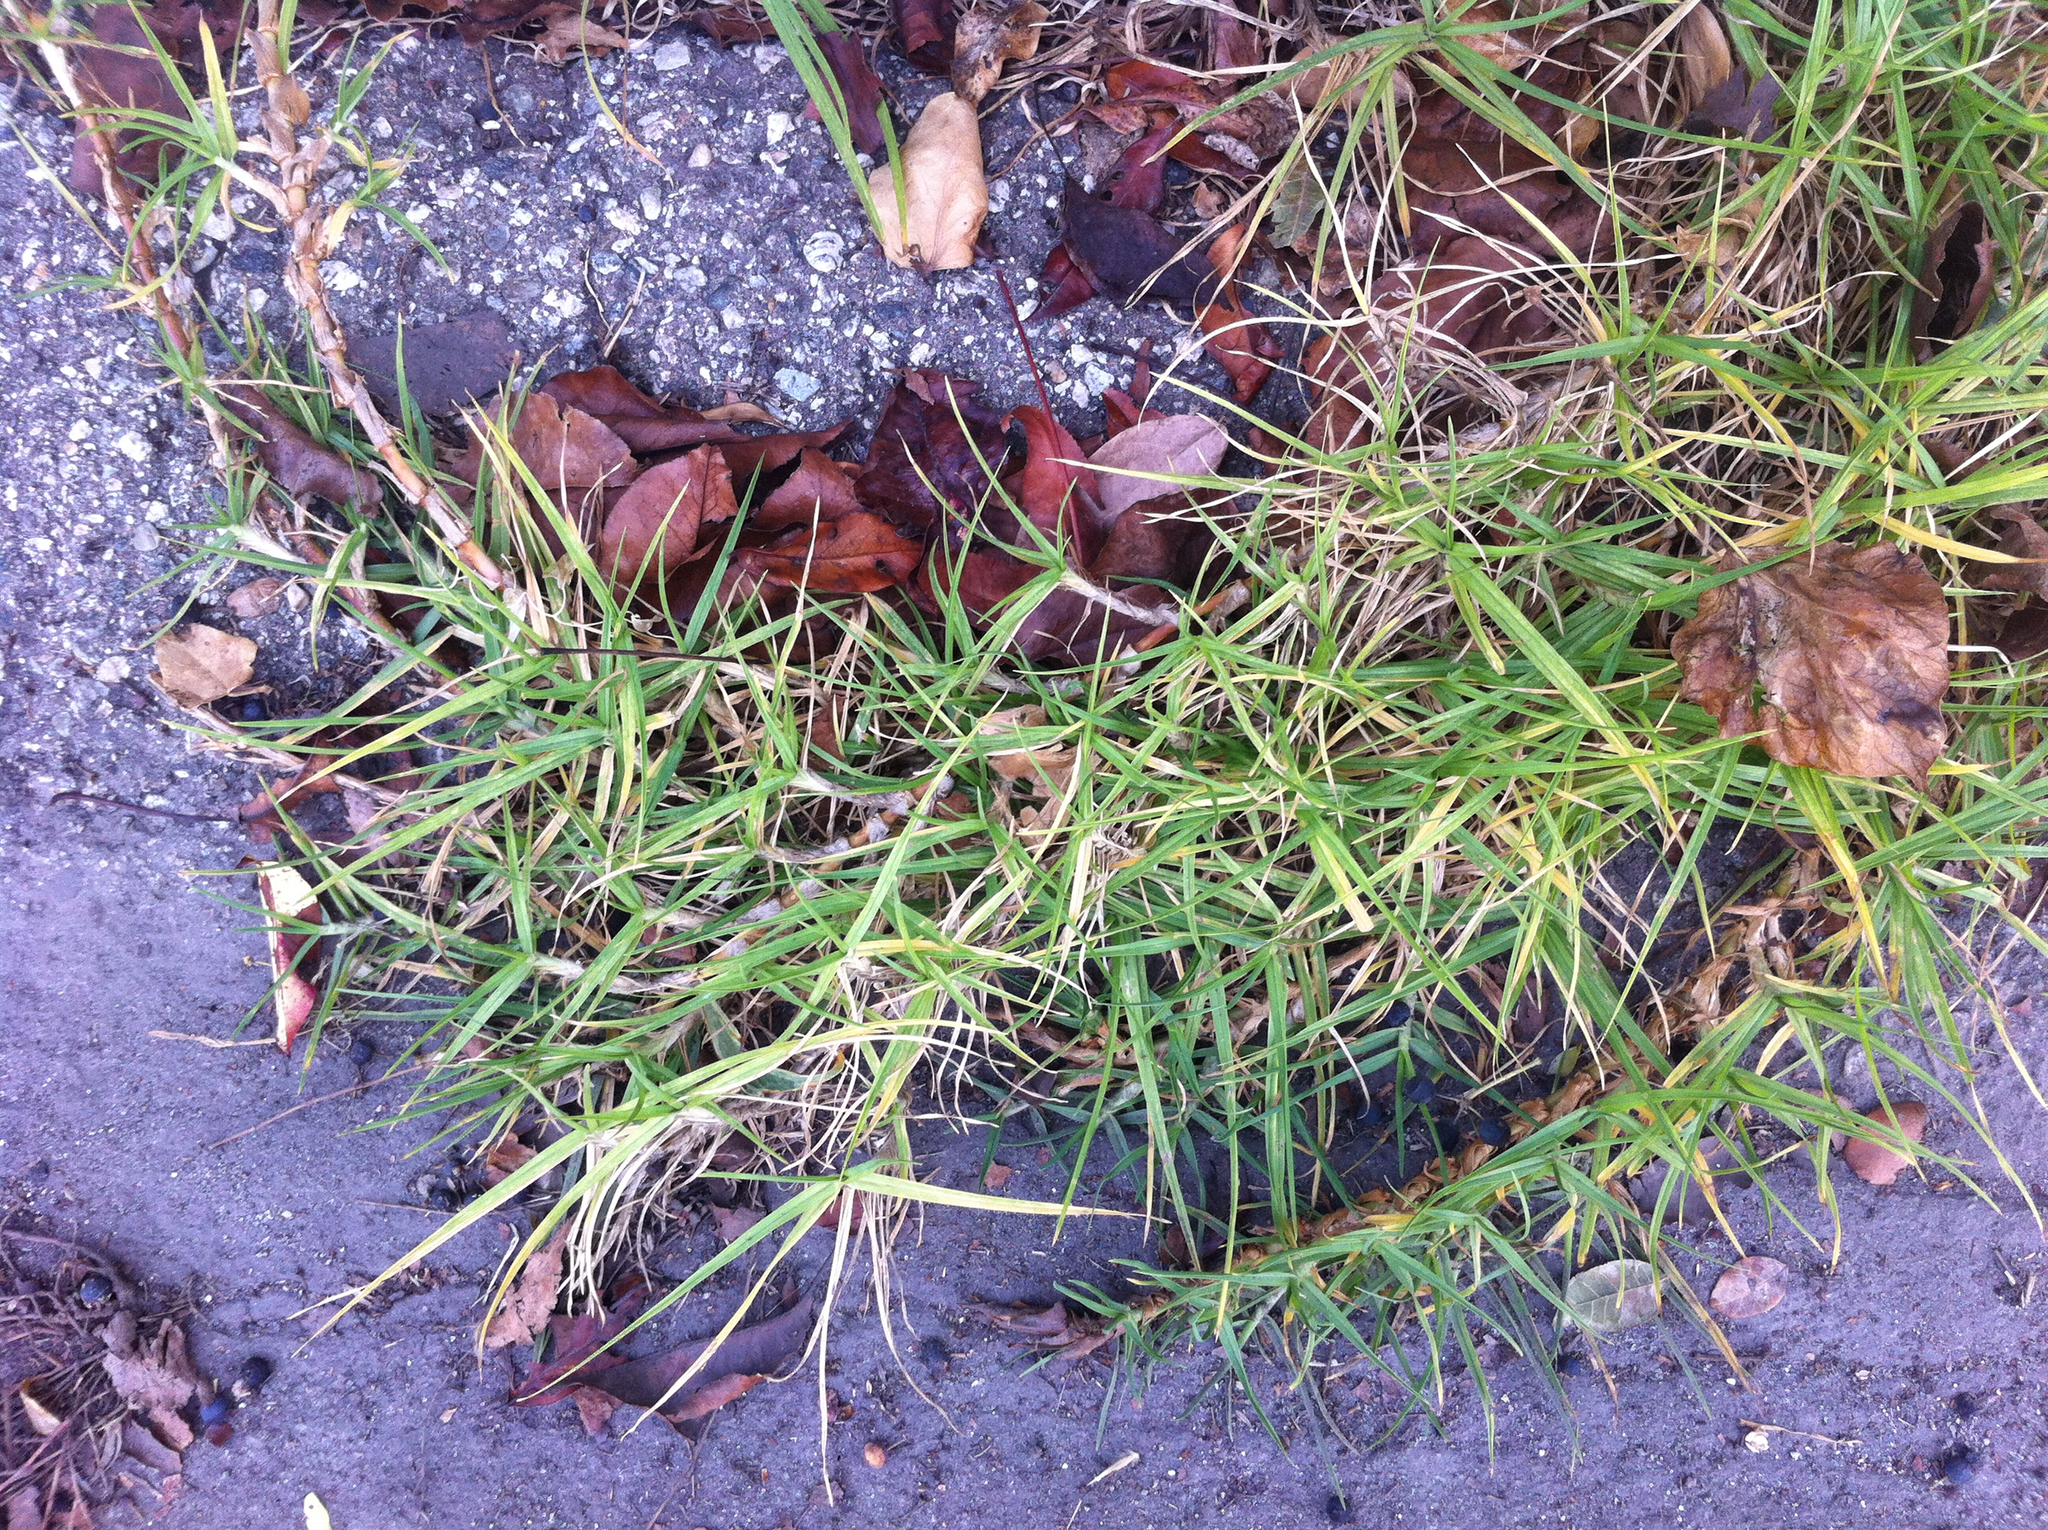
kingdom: Plantae
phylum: Tracheophyta
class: Liliopsida
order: Poales
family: Poaceae
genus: Cenchrus
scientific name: Cenchrus clandestinus
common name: Kikuyugrass
